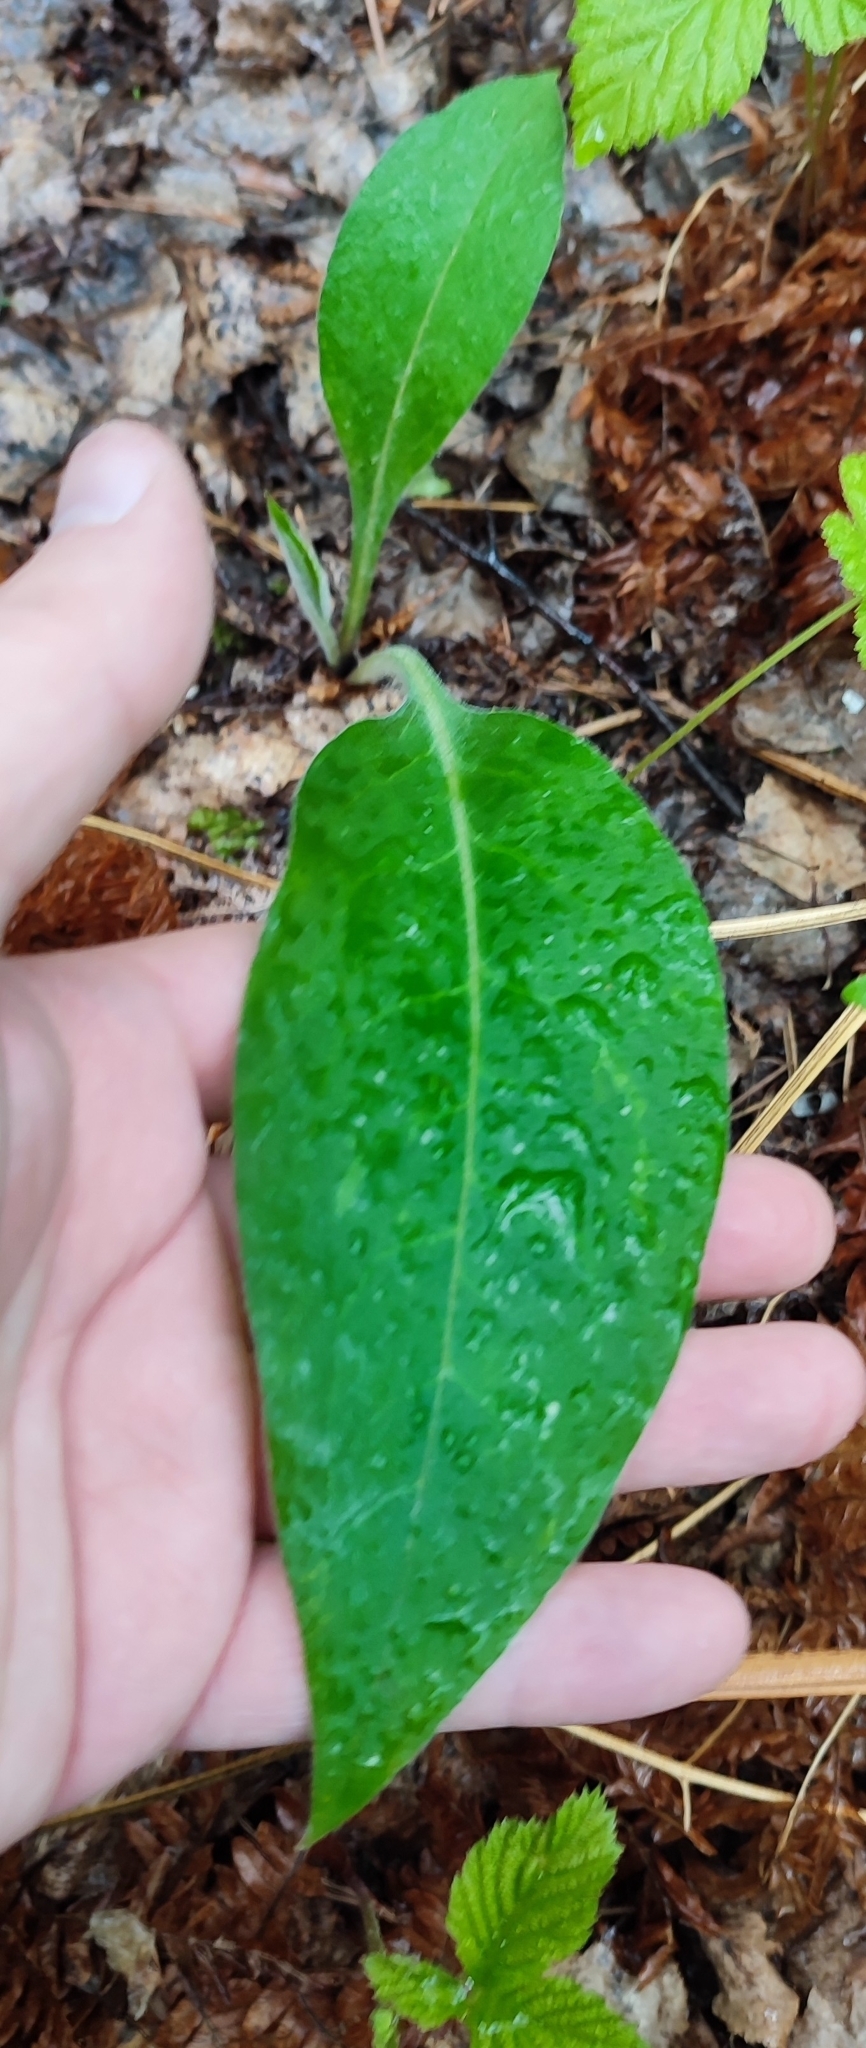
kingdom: Plantae
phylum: Tracheophyta
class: Magnoliopsida
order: Boraginales
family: Boraginaceae
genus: Pulmonaria
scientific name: Pulmonaria mollis
